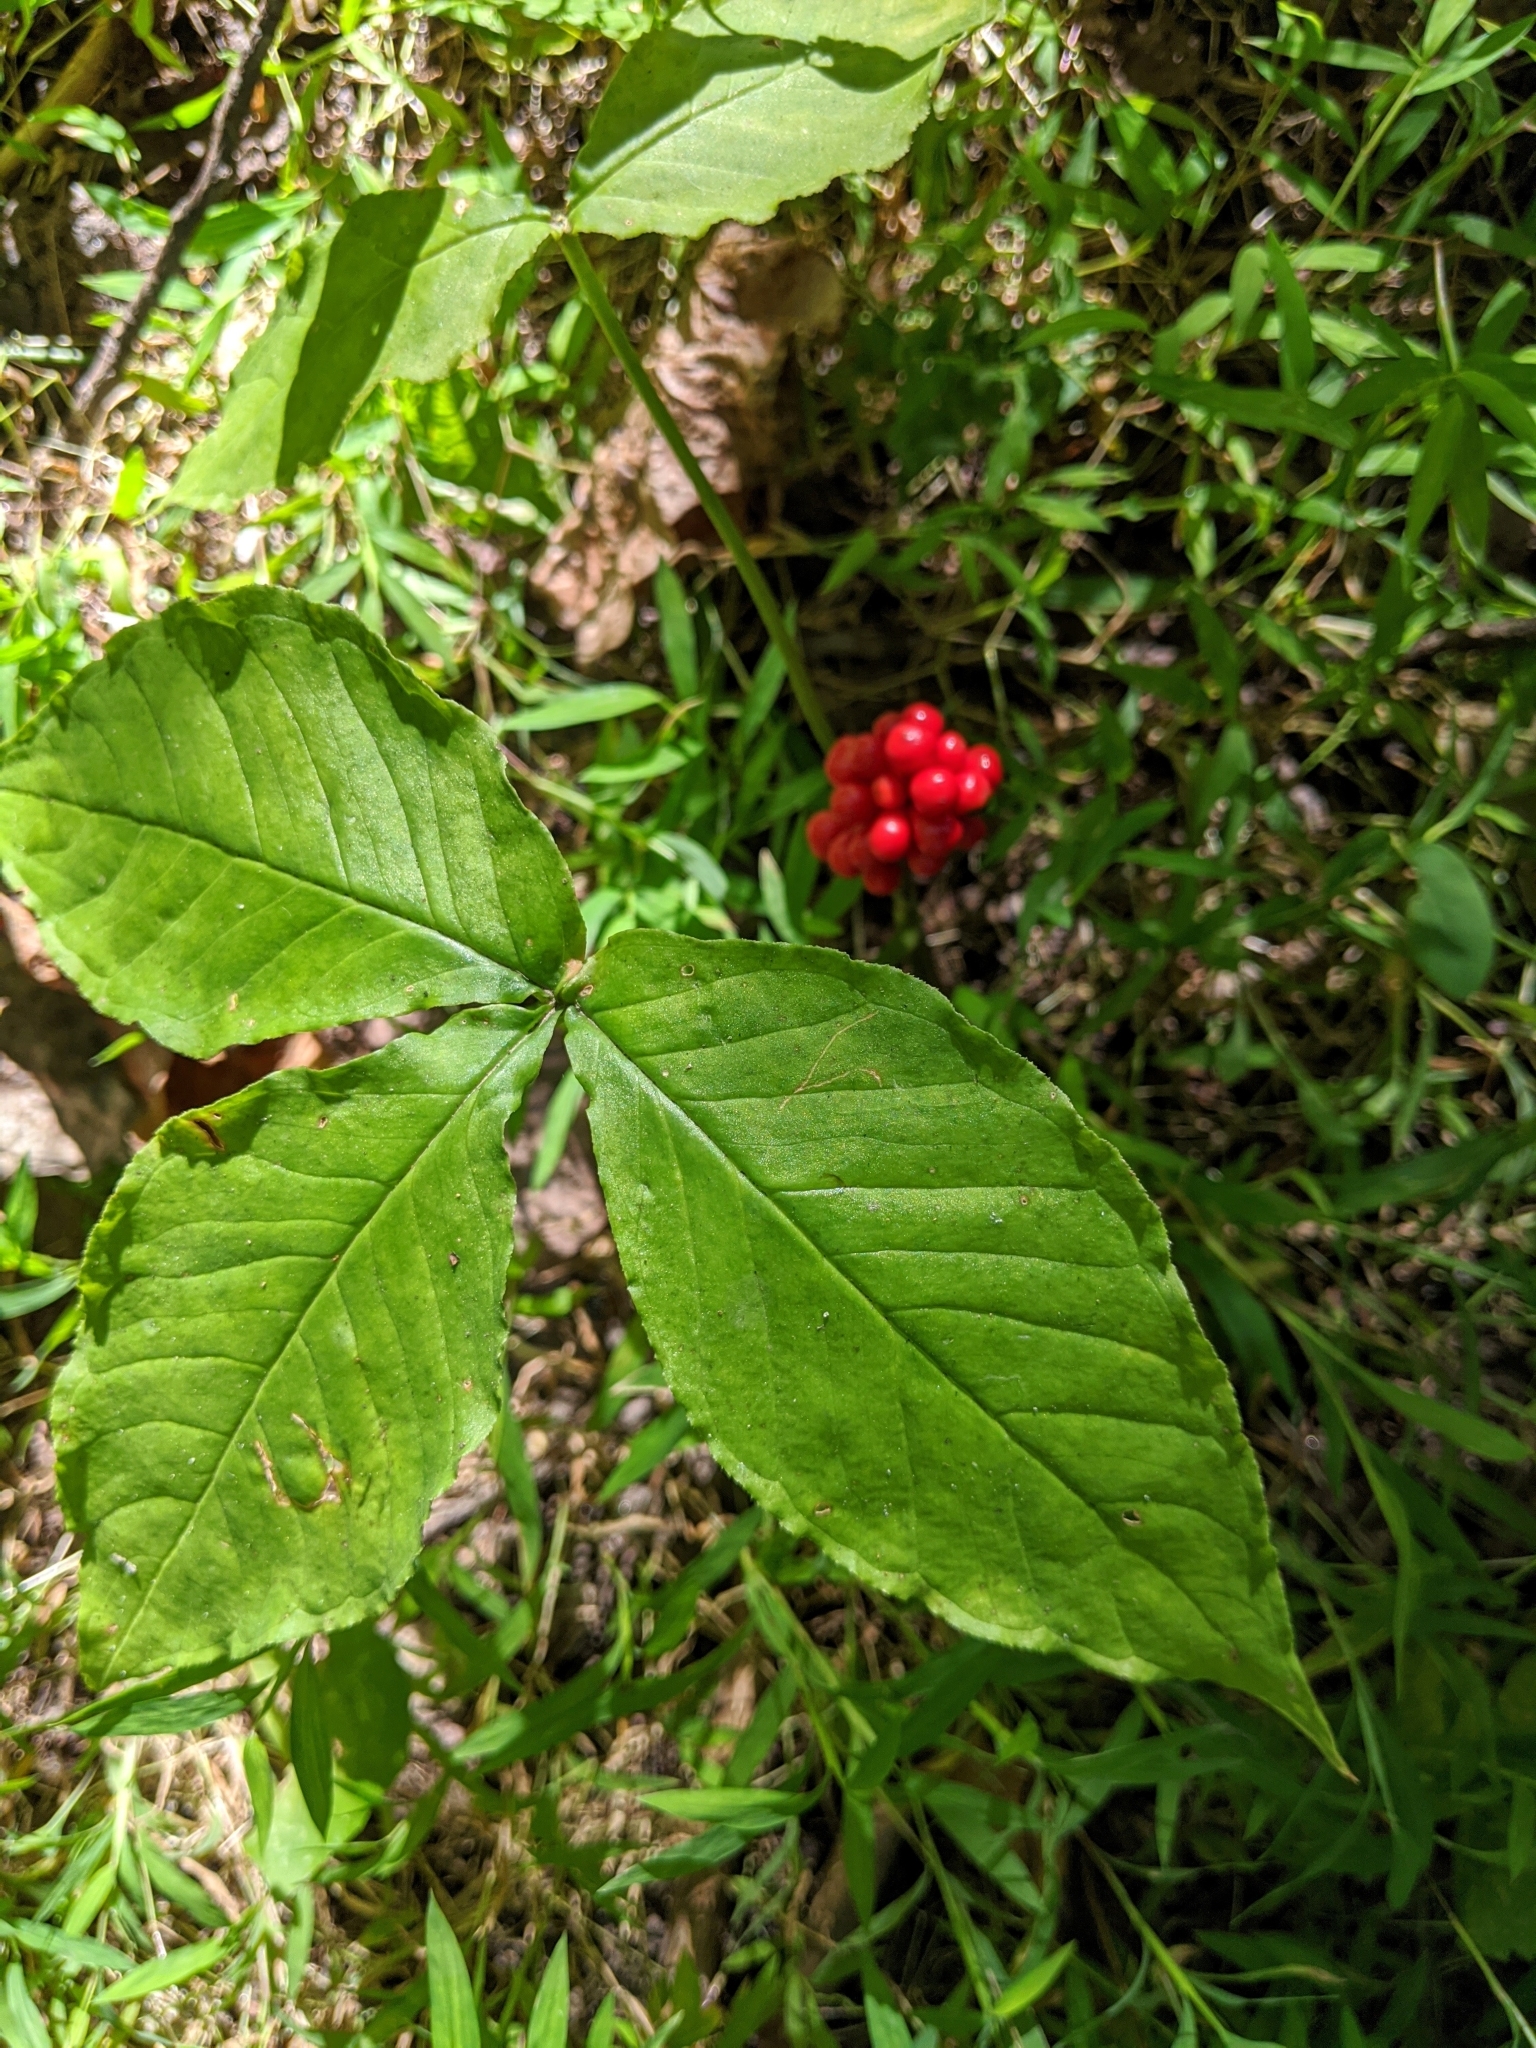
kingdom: Plantae
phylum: Tracheophyta
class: Liliopsida
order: Alismatales
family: Araceae
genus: Arisaema
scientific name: Arisaema triphyllum
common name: Jack-in-the-pulpit
